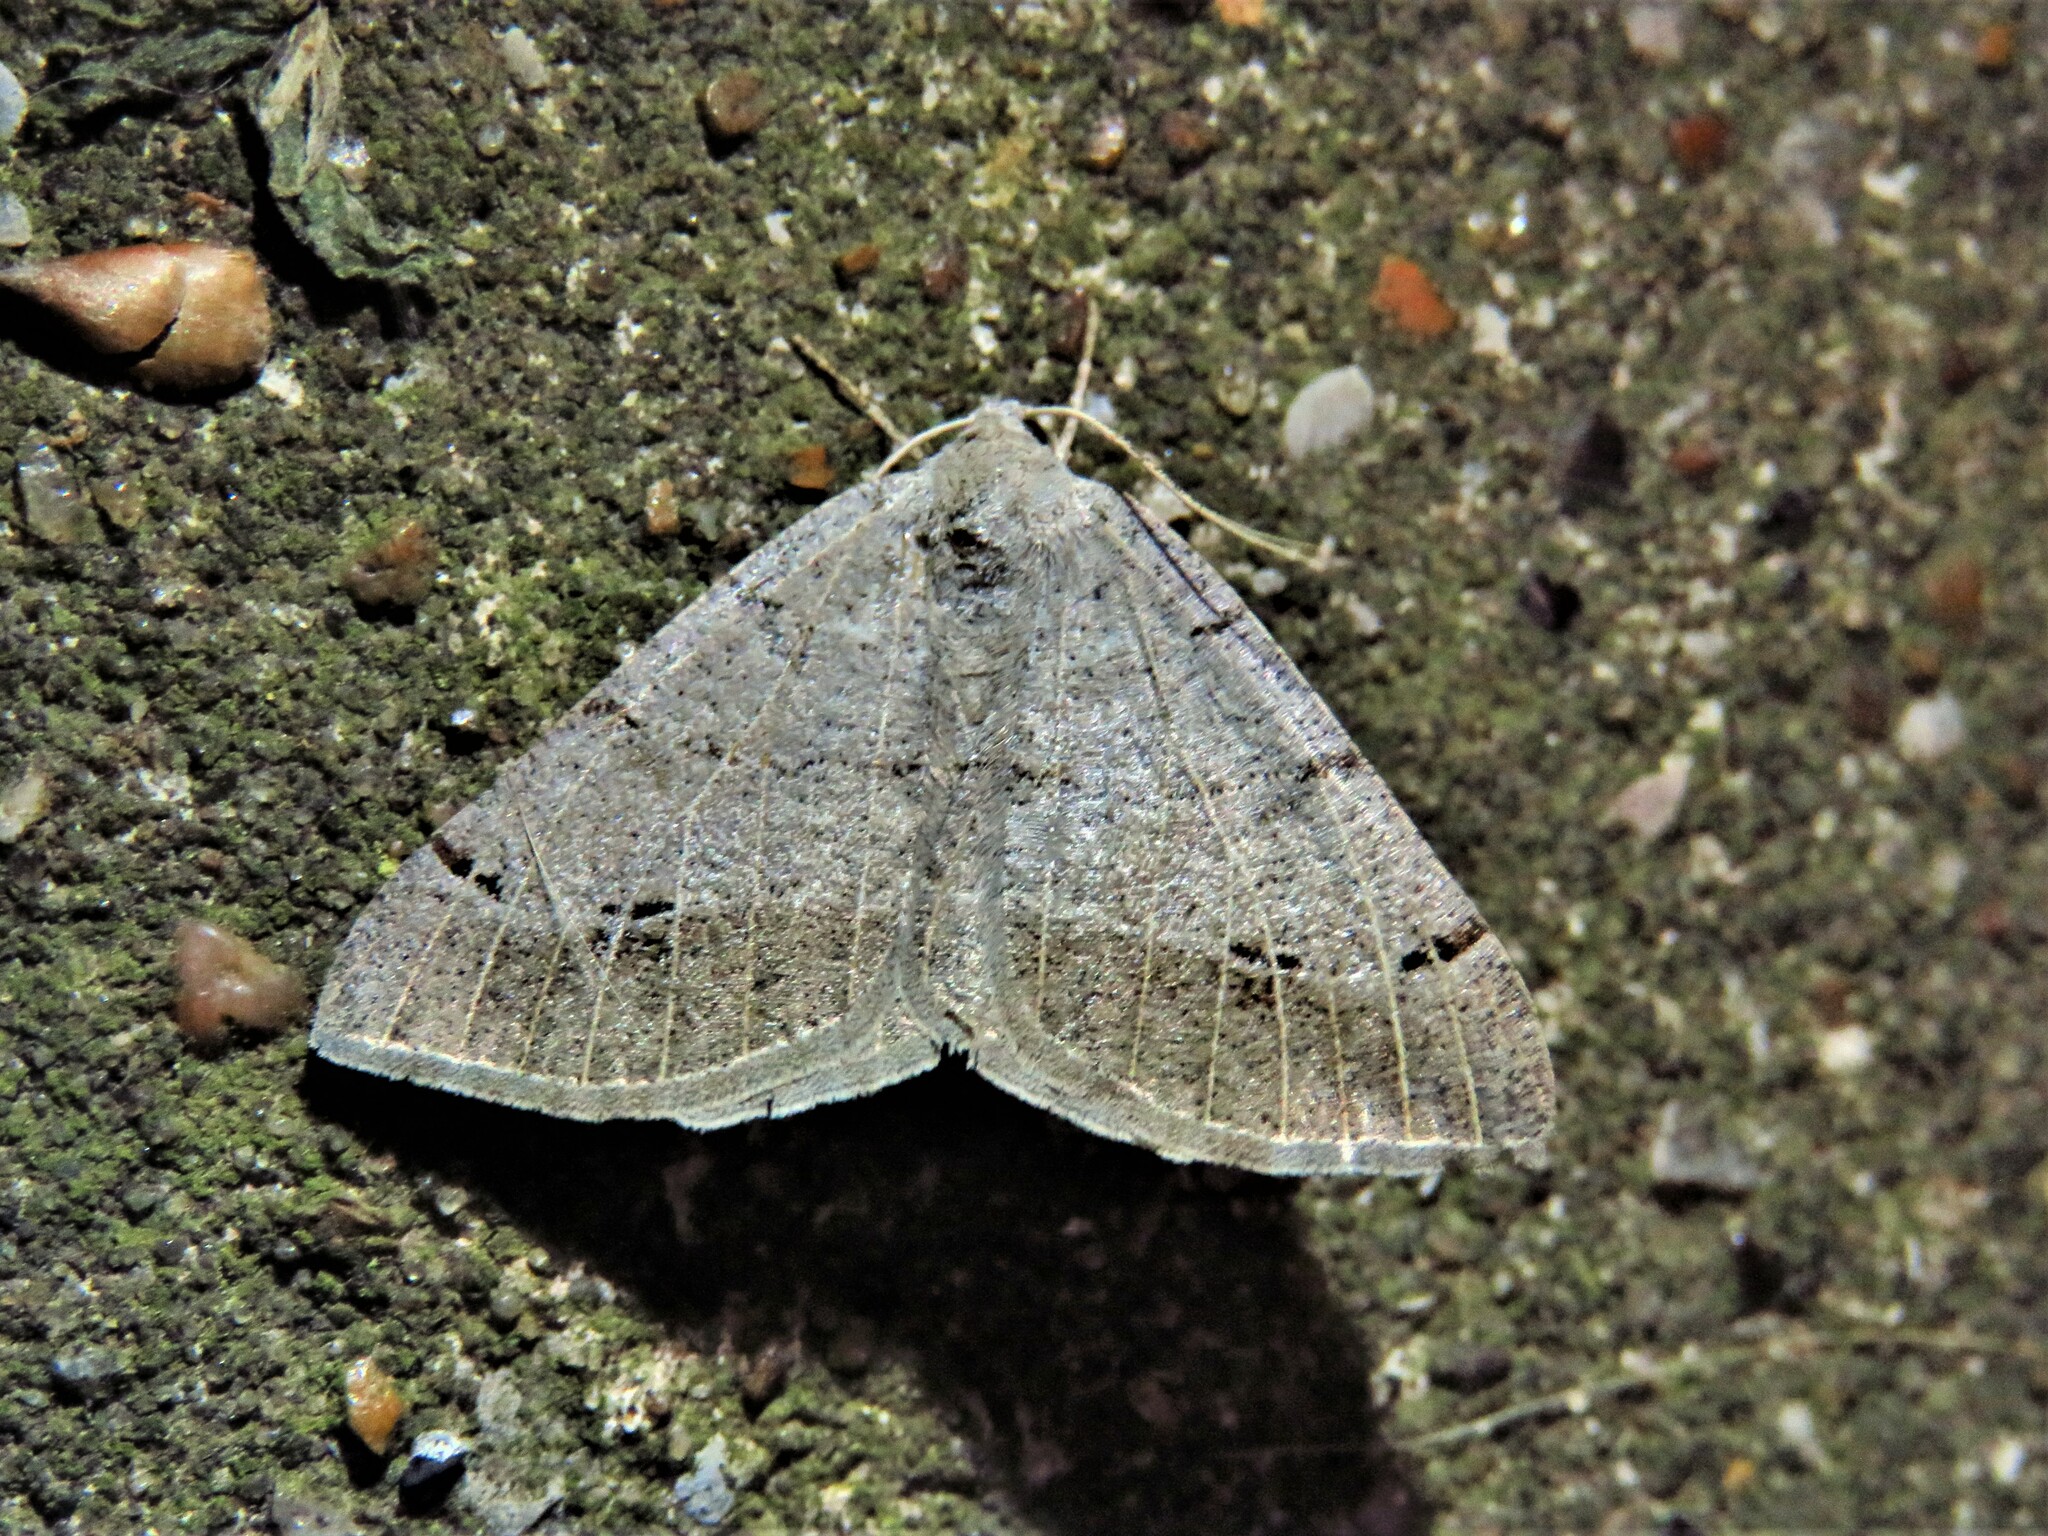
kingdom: Animalia
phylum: Arthropoda
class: Insecta
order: Lepidoptera
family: Geometridae
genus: Isturgia
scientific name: Isturgia dislocaria
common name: Pale-viened enconista
